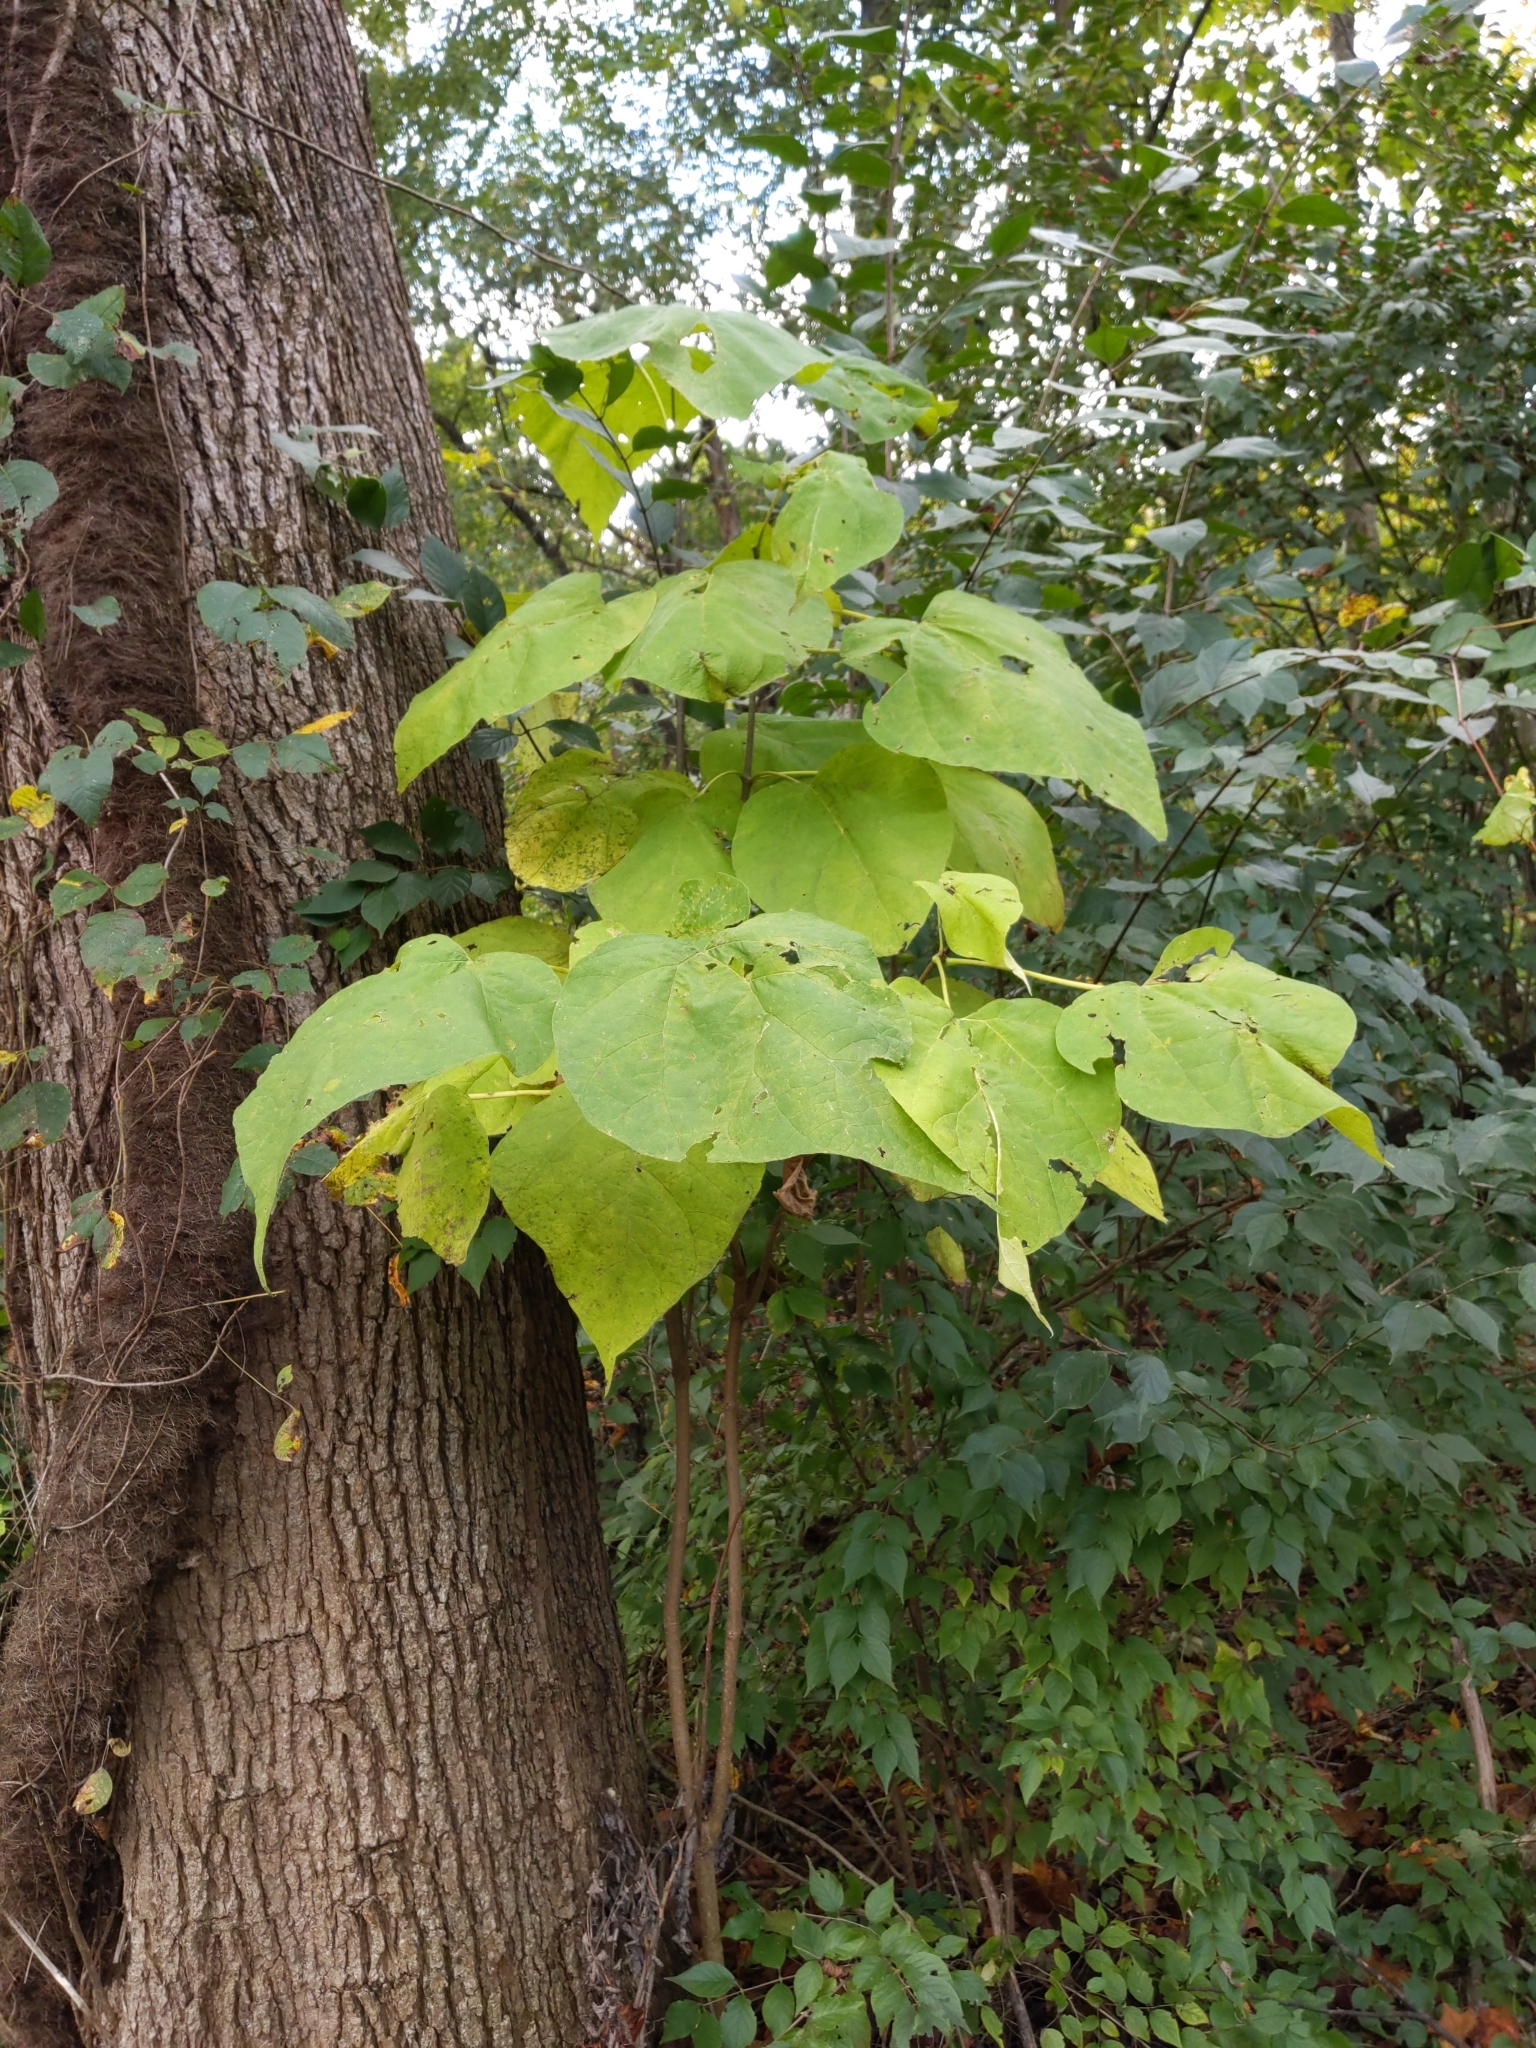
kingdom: Plantae
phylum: Tracheophyta
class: Magnoliopsida
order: Lamiales
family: Bignoniaceae
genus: Catalpa
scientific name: Catalpa speciosa
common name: Northern catalpa
